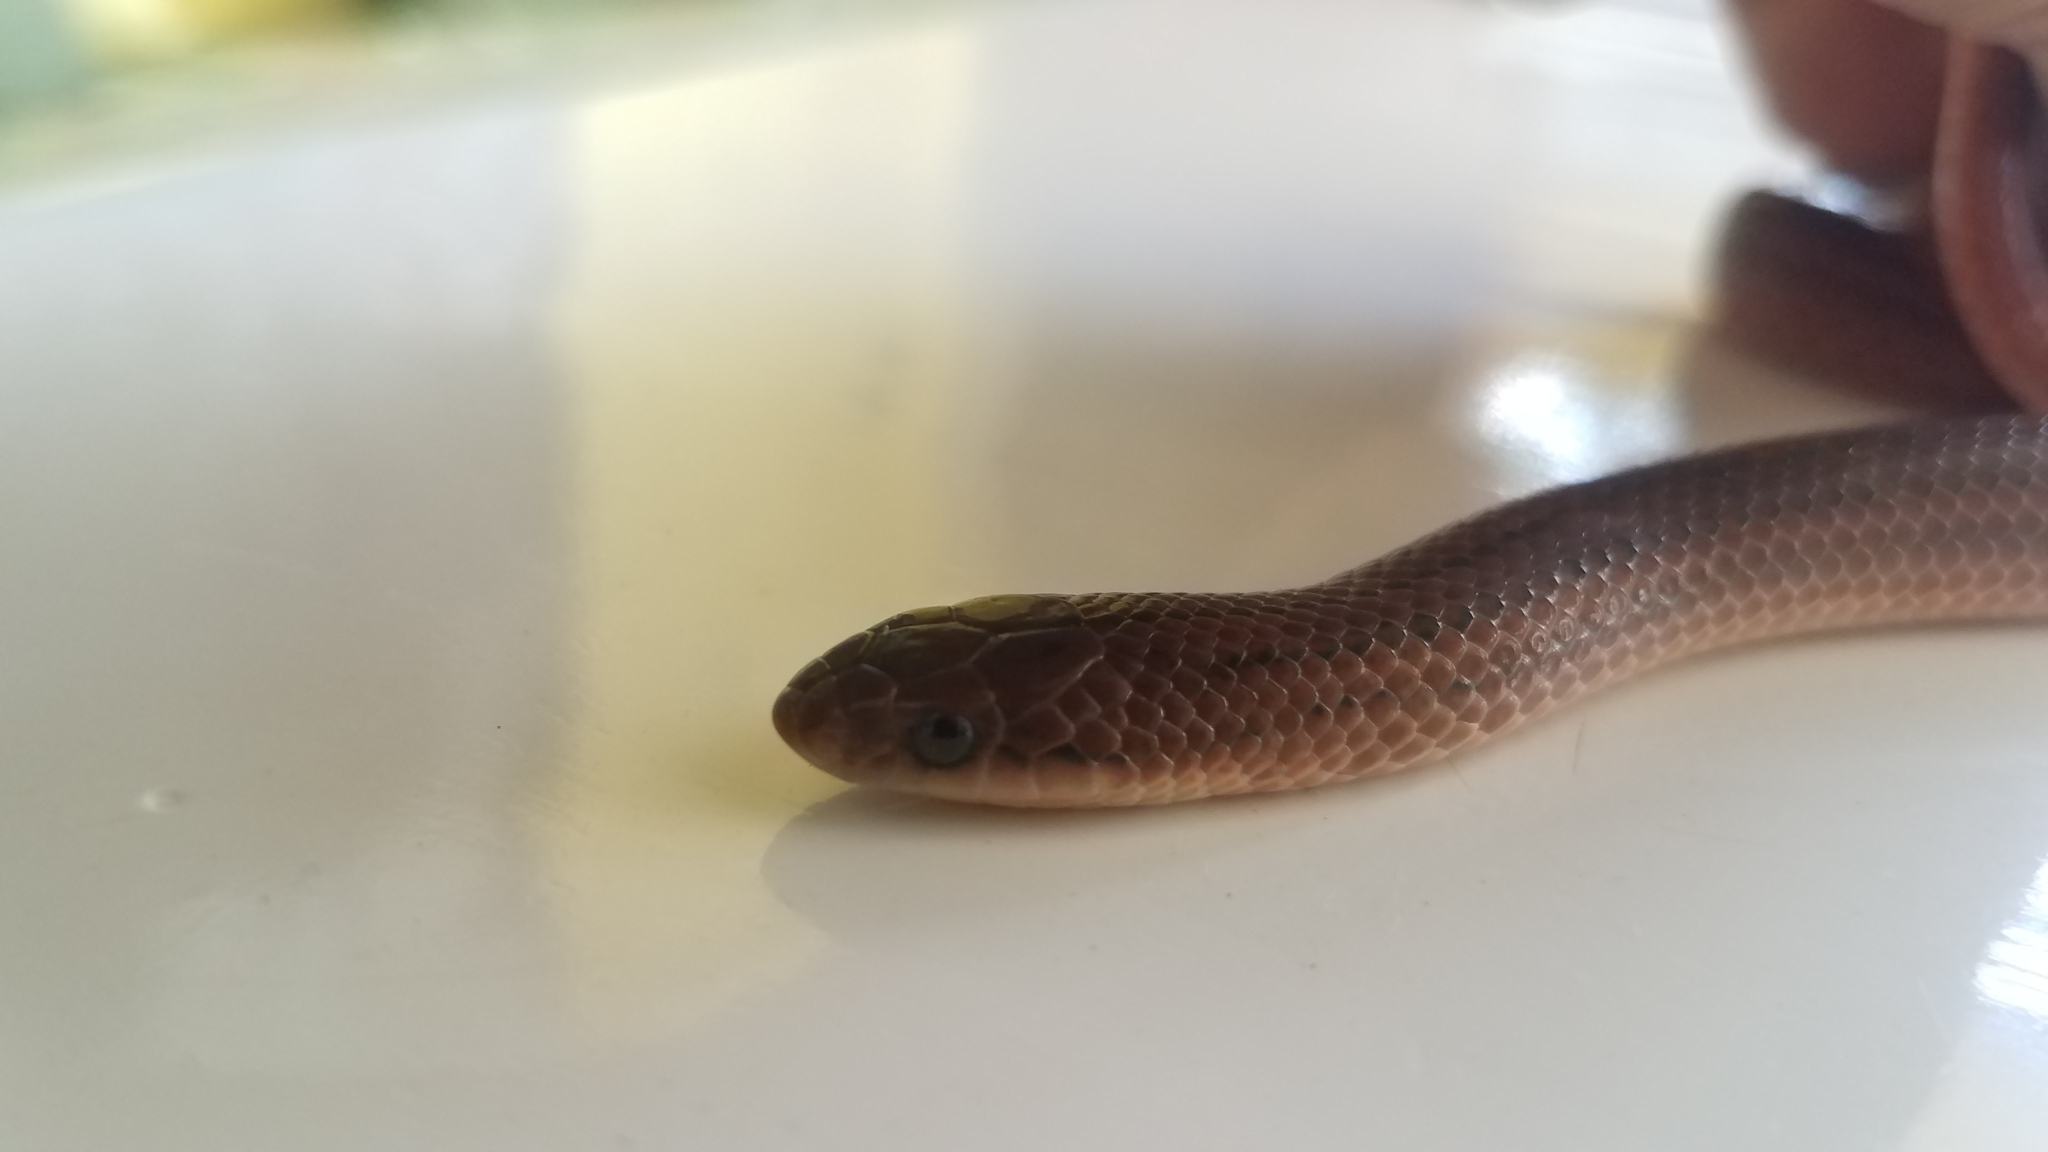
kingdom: Animalia
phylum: Chordata
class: Squamata
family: Colubridae
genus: Stenorrhina
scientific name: Stenorrhina freminvillei
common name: Blood snake
